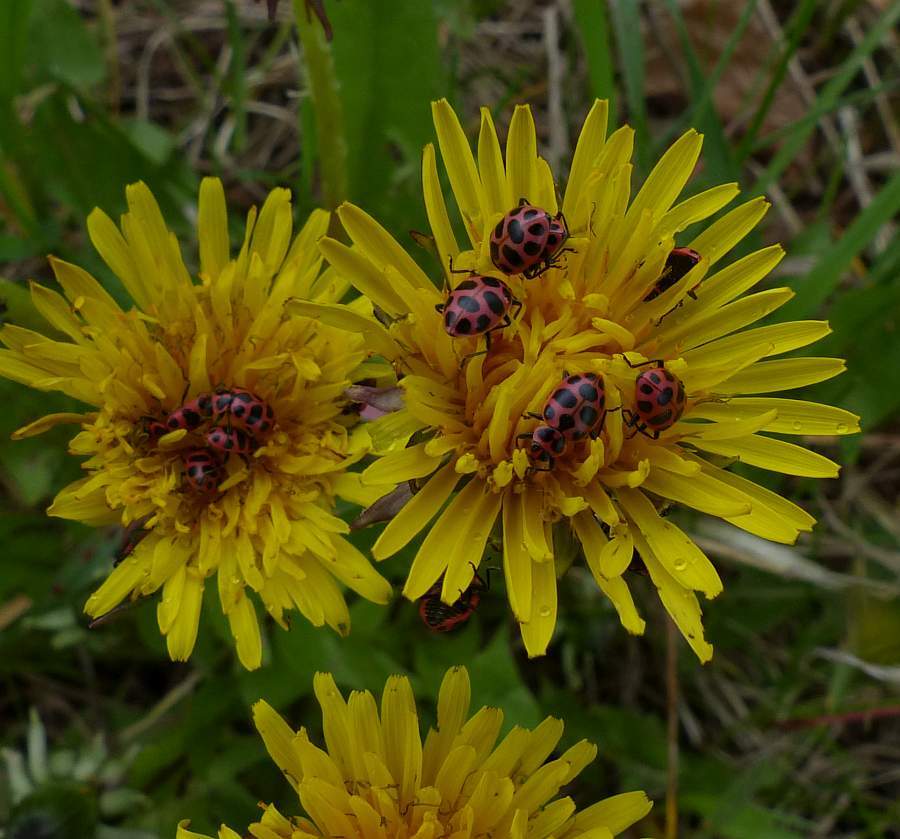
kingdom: Animalia
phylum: Arthropoda
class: Insecta
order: Coleoptera
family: Coccinellidae
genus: Coleomegilla
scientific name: Coleomegilla maculata
